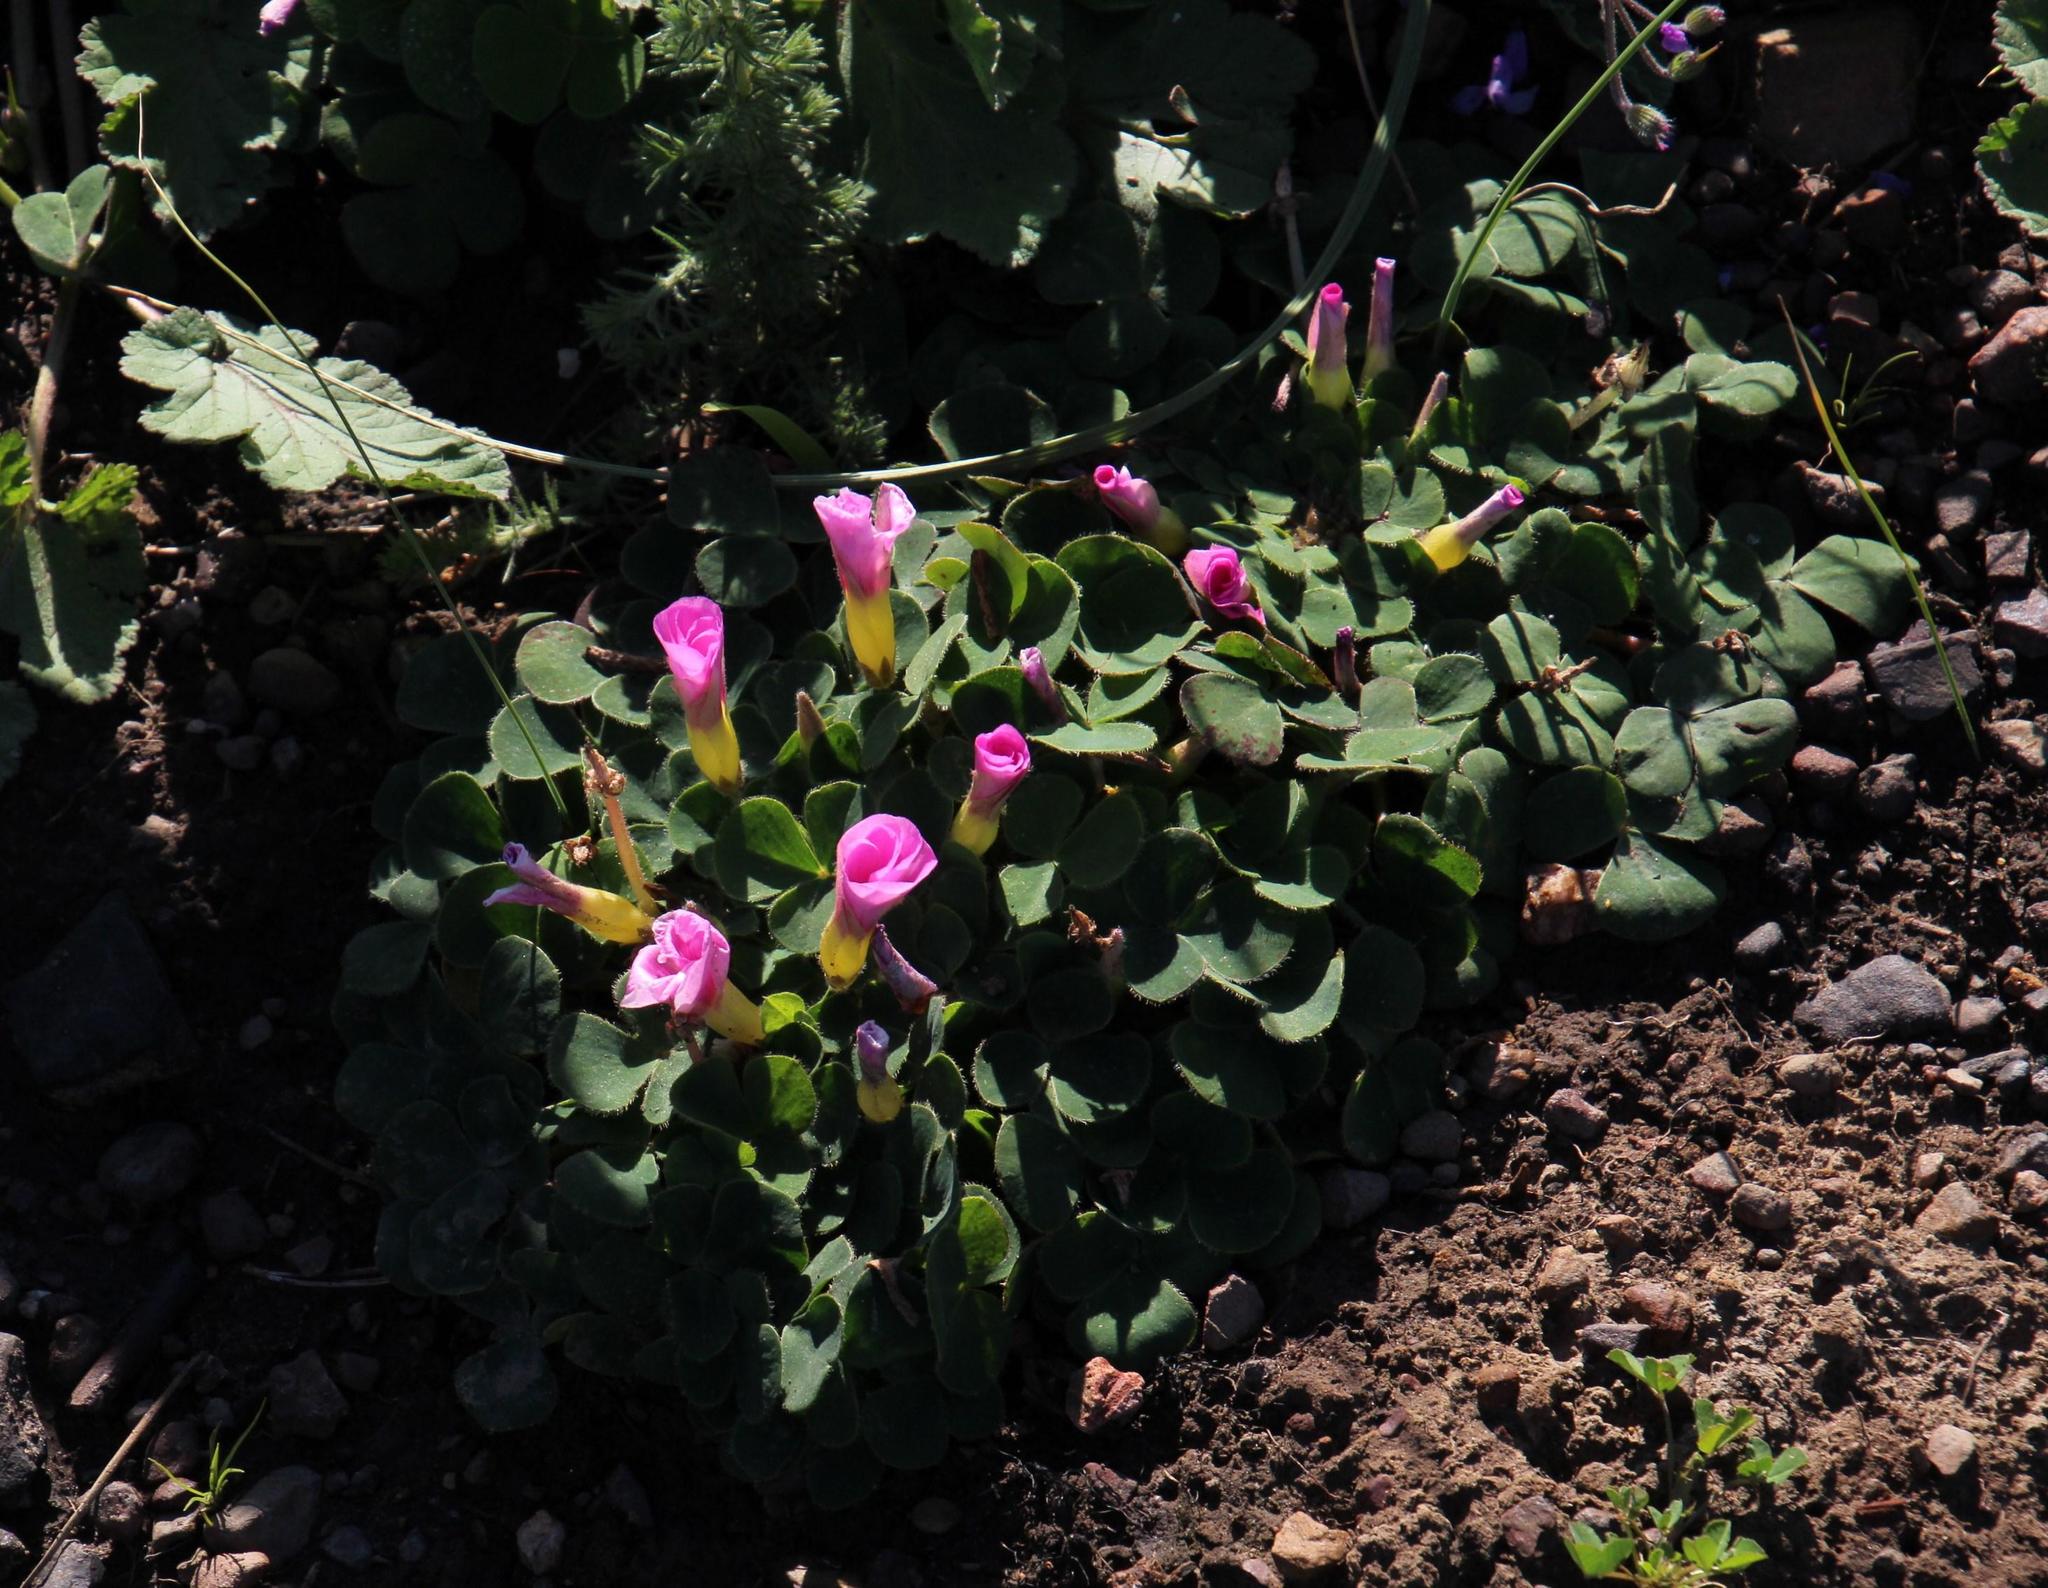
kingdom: Plantae
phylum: Tracheophyta
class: Magnoliopsida
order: Oxalidales
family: Oxalidaceae
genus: Oxalis
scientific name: Oxalis purpurea
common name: Purple woodsorrel
